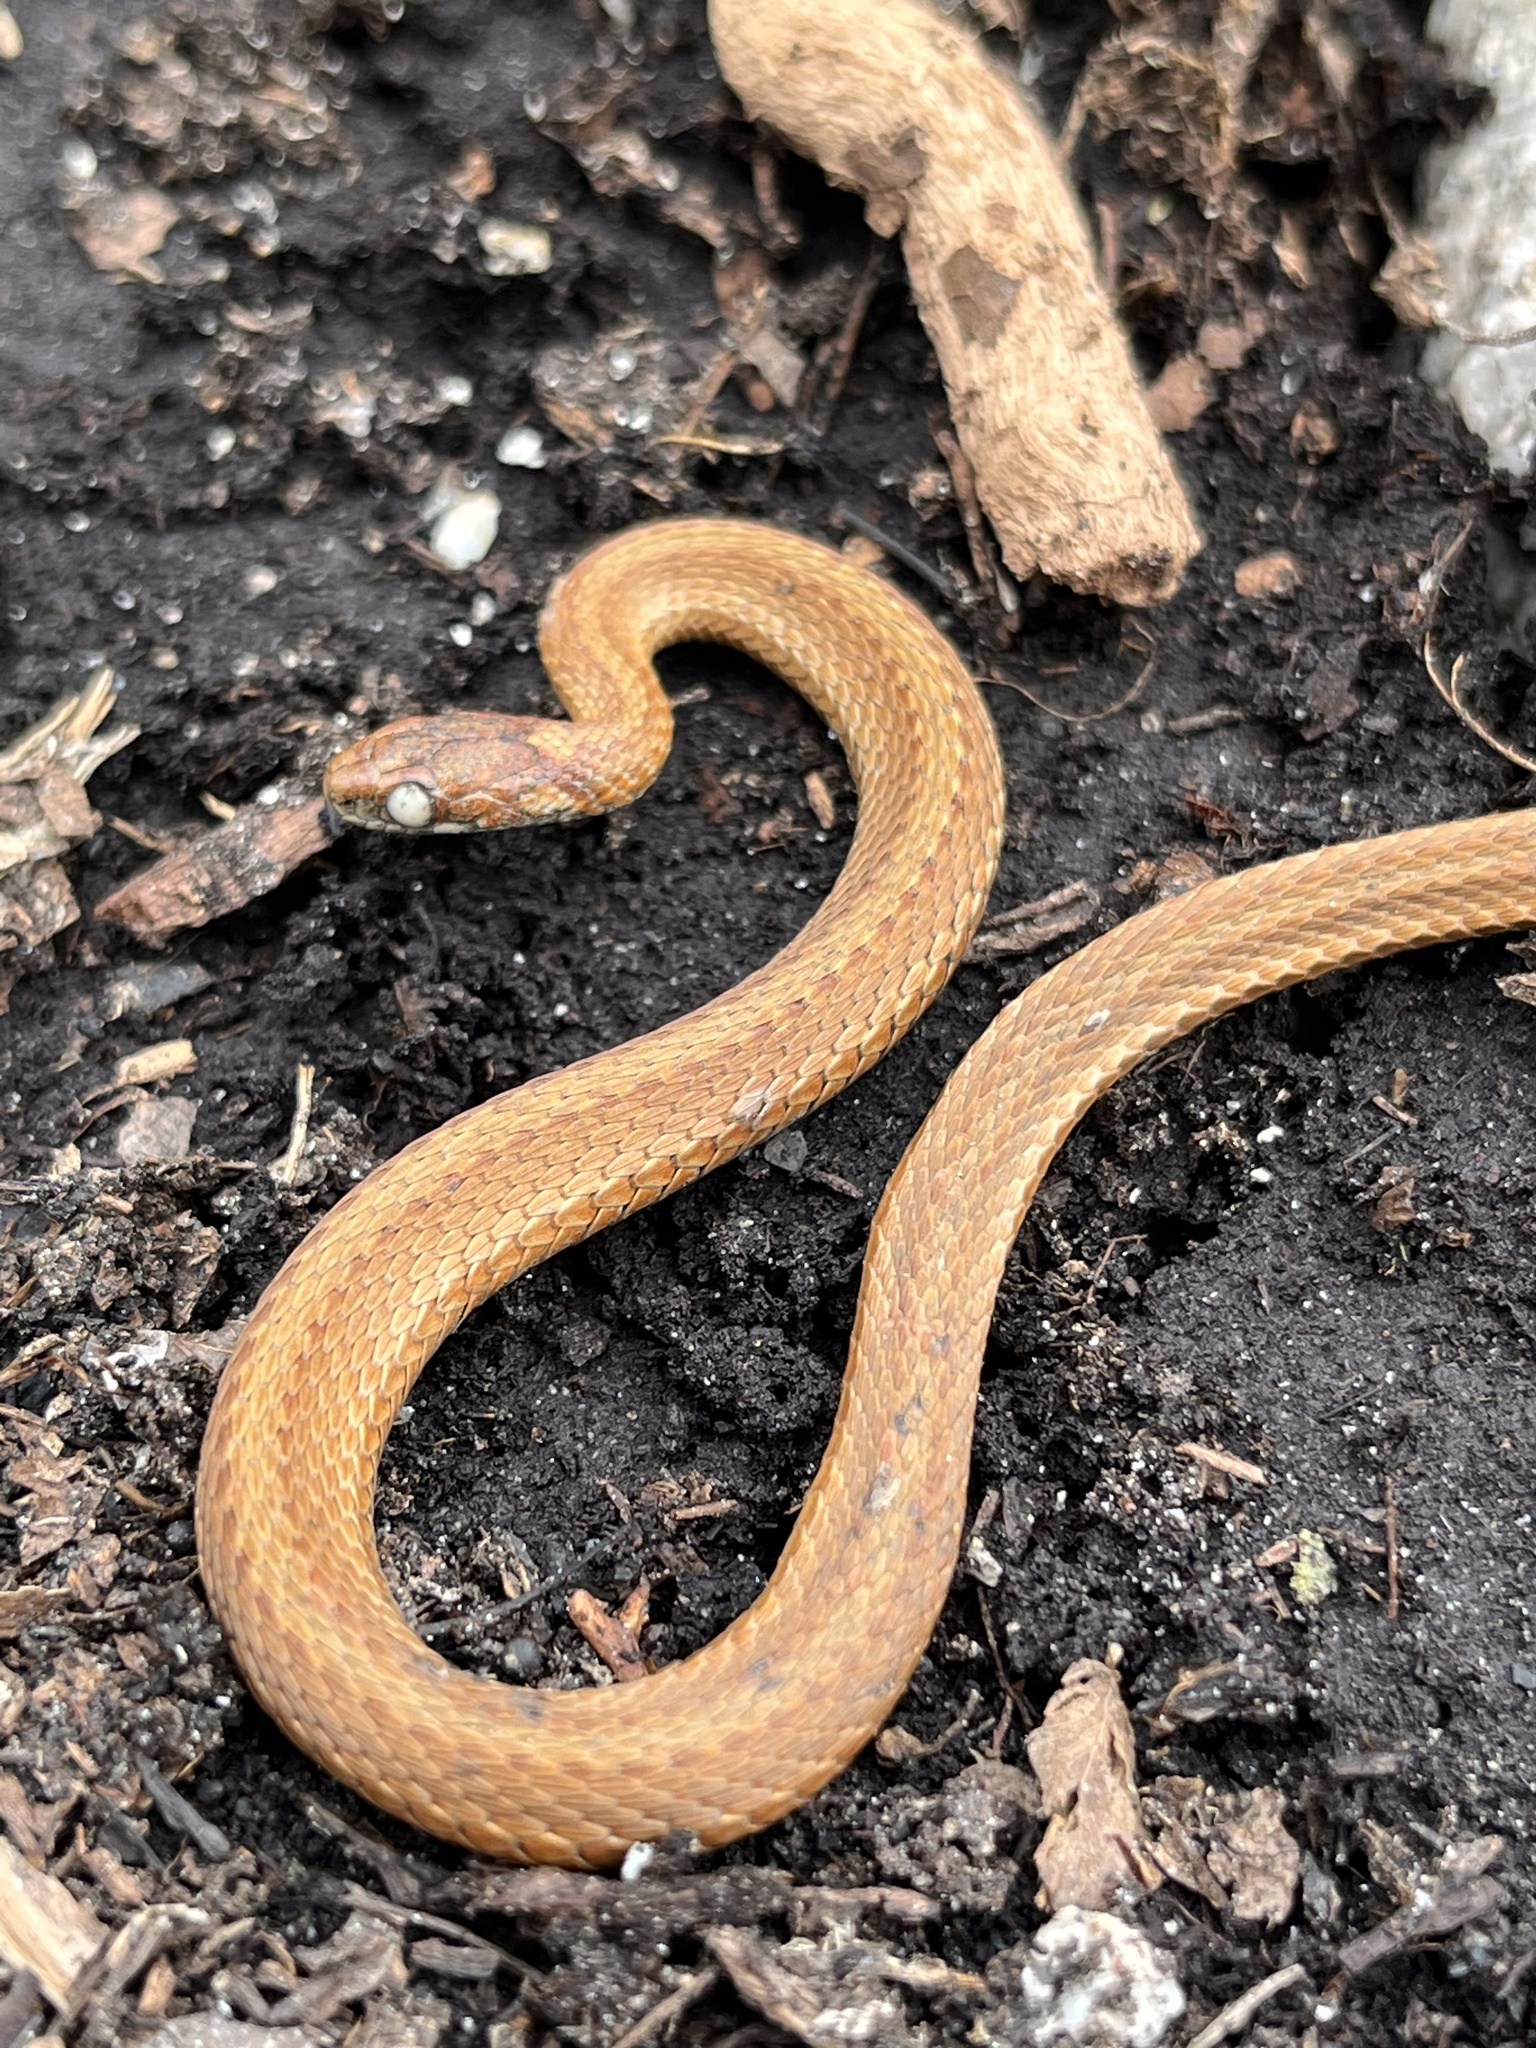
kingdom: Animalia
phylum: Chordata
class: Squamata
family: Colubridae
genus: Storeria
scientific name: Storeria occipitomaculata
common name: Redbelly snake
